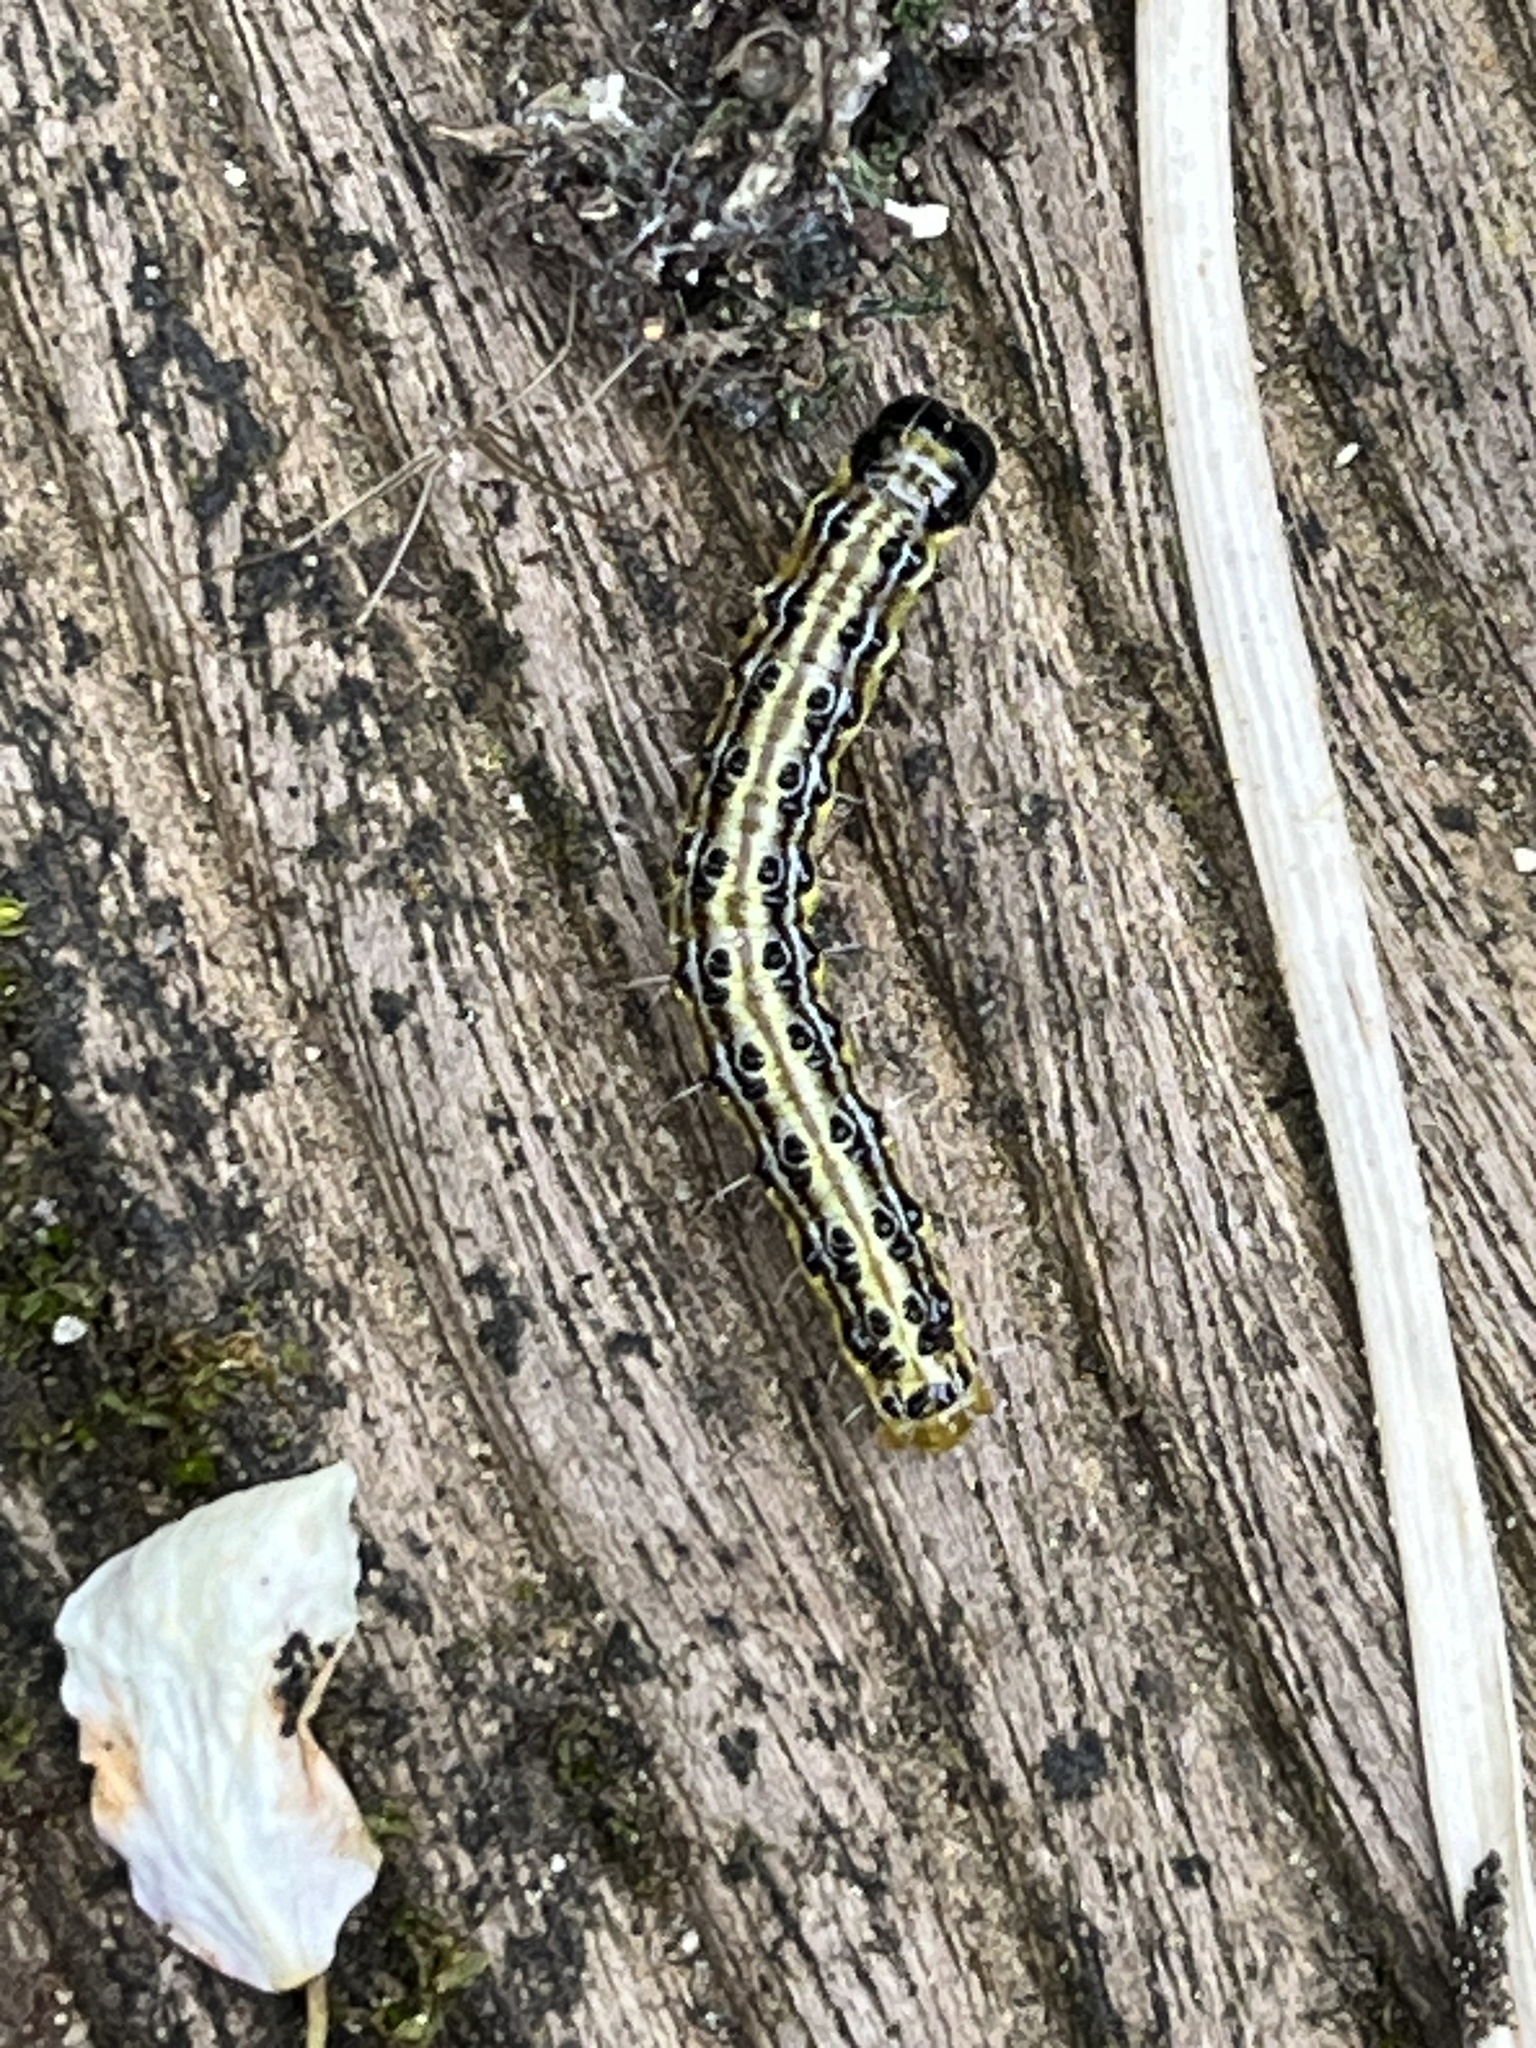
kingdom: Animalia
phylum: Arthropoda
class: Insecta
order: Lepidoptera
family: Crambidae
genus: Cydalima
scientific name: Cydalima perspectalis
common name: Box tree moth
